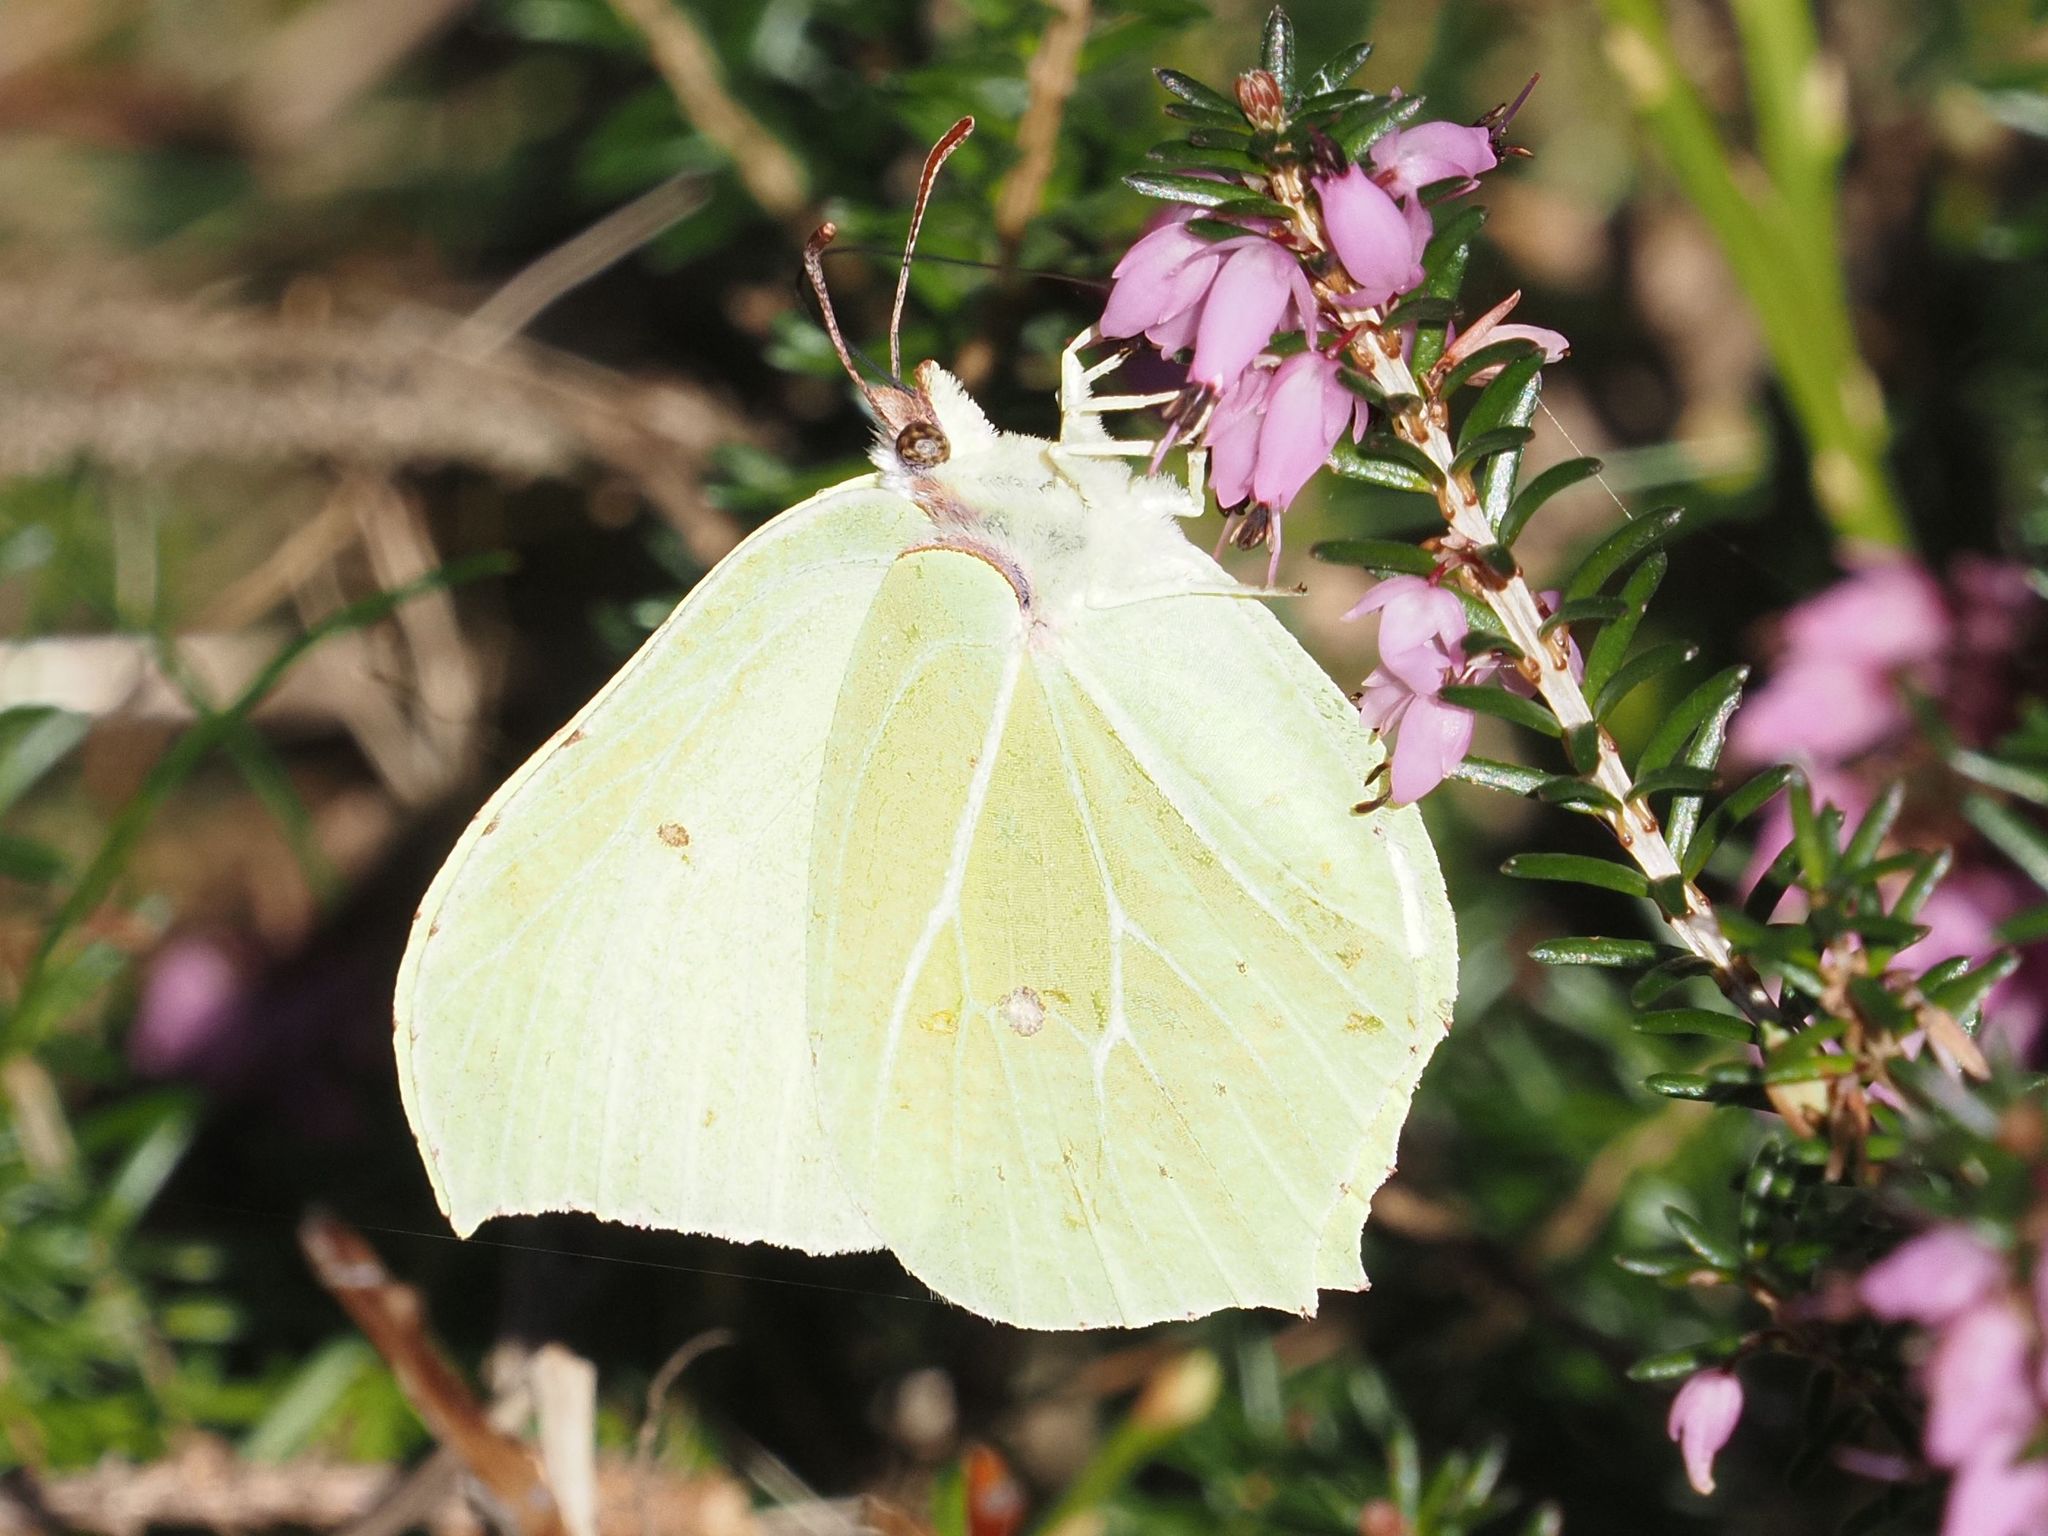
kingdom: Animalia
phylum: Arthropoda
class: Insecta
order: Lepidoptera
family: Pieridae
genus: Gonepteryx
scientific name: Gonepteryx rhamni
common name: Brimstone
